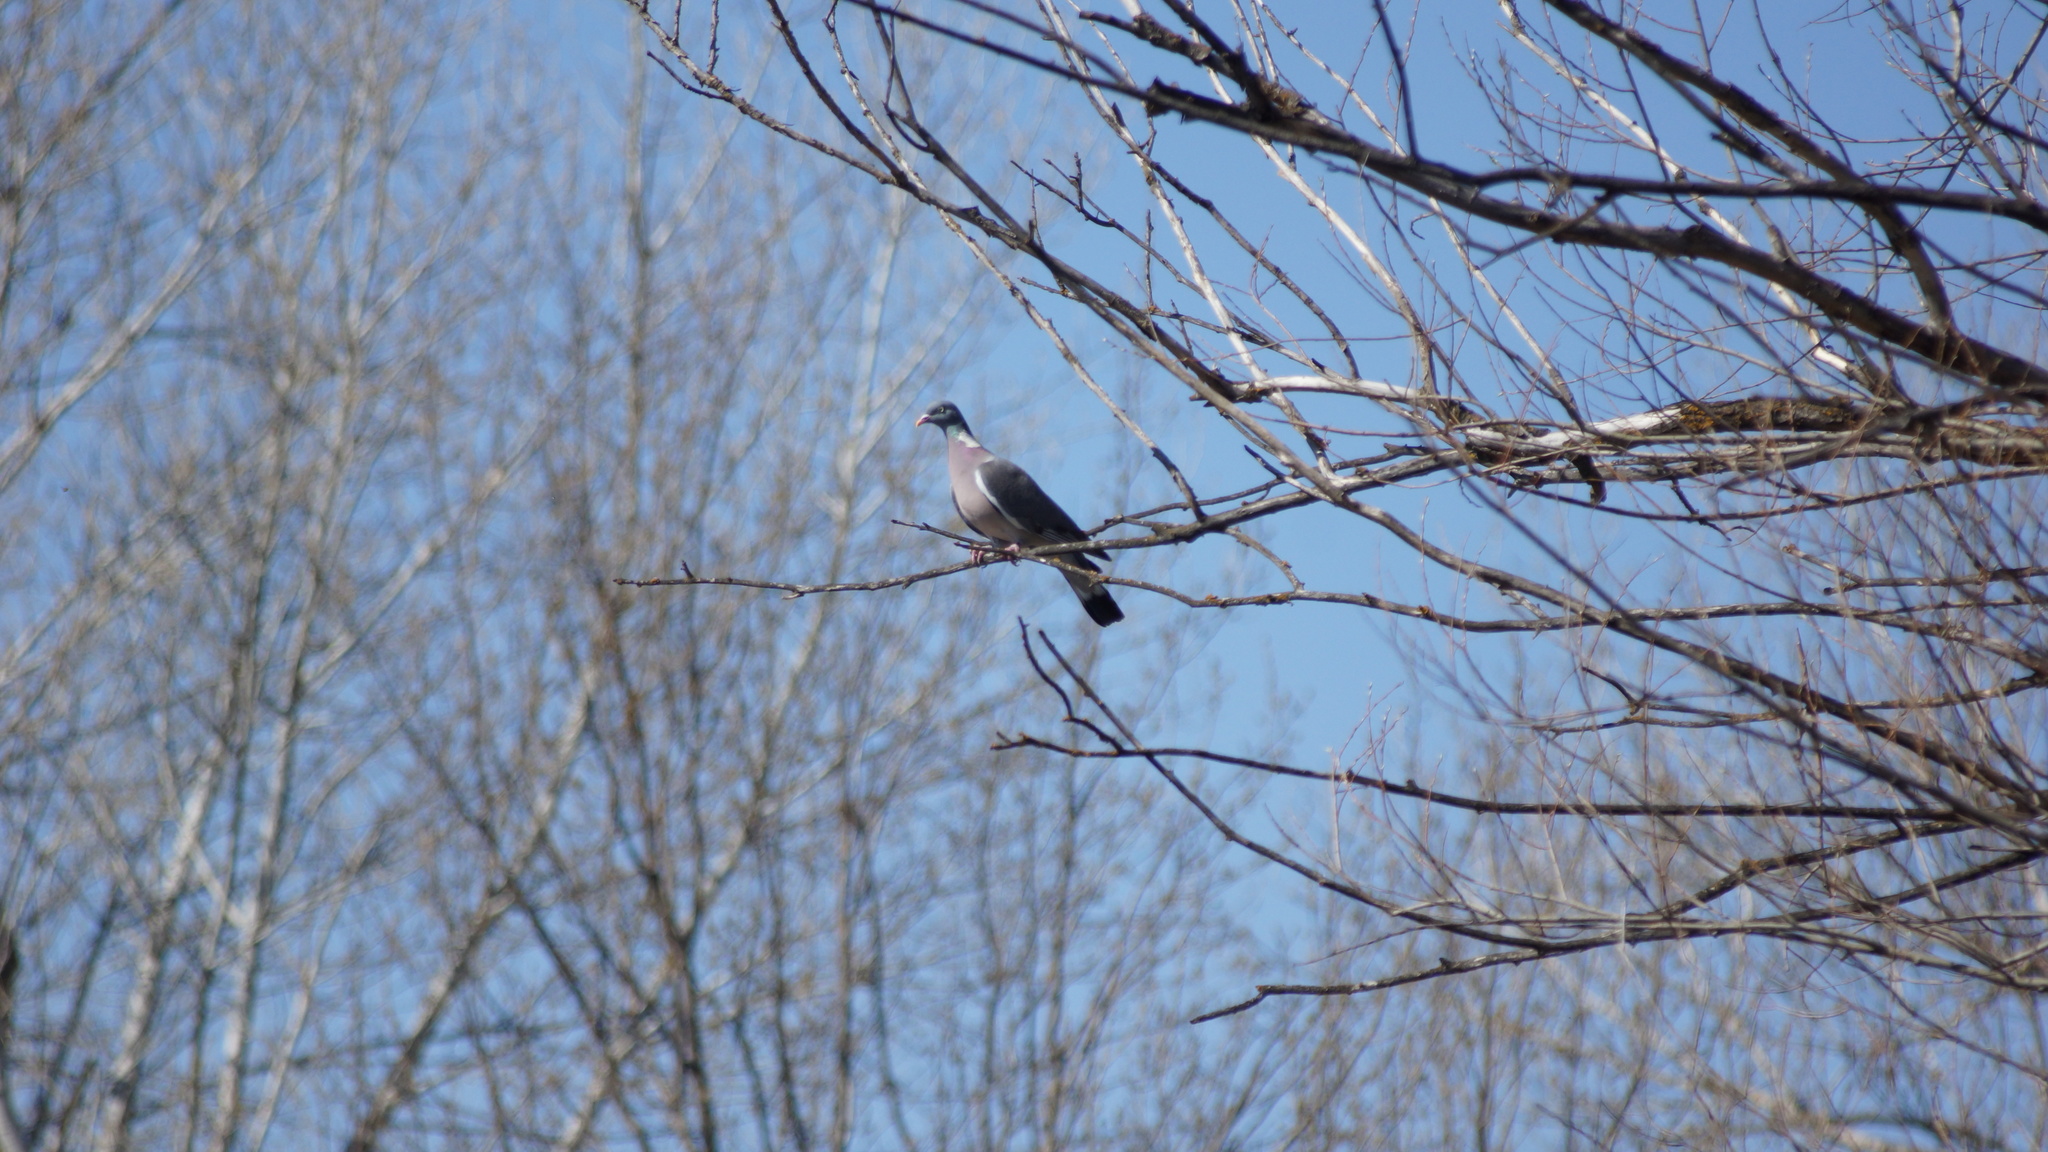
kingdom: Animalia
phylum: Chordata
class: Aves
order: Columbiformes
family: Columbidae
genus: Columba
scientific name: Columba palumbus
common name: Common wood pigeon
